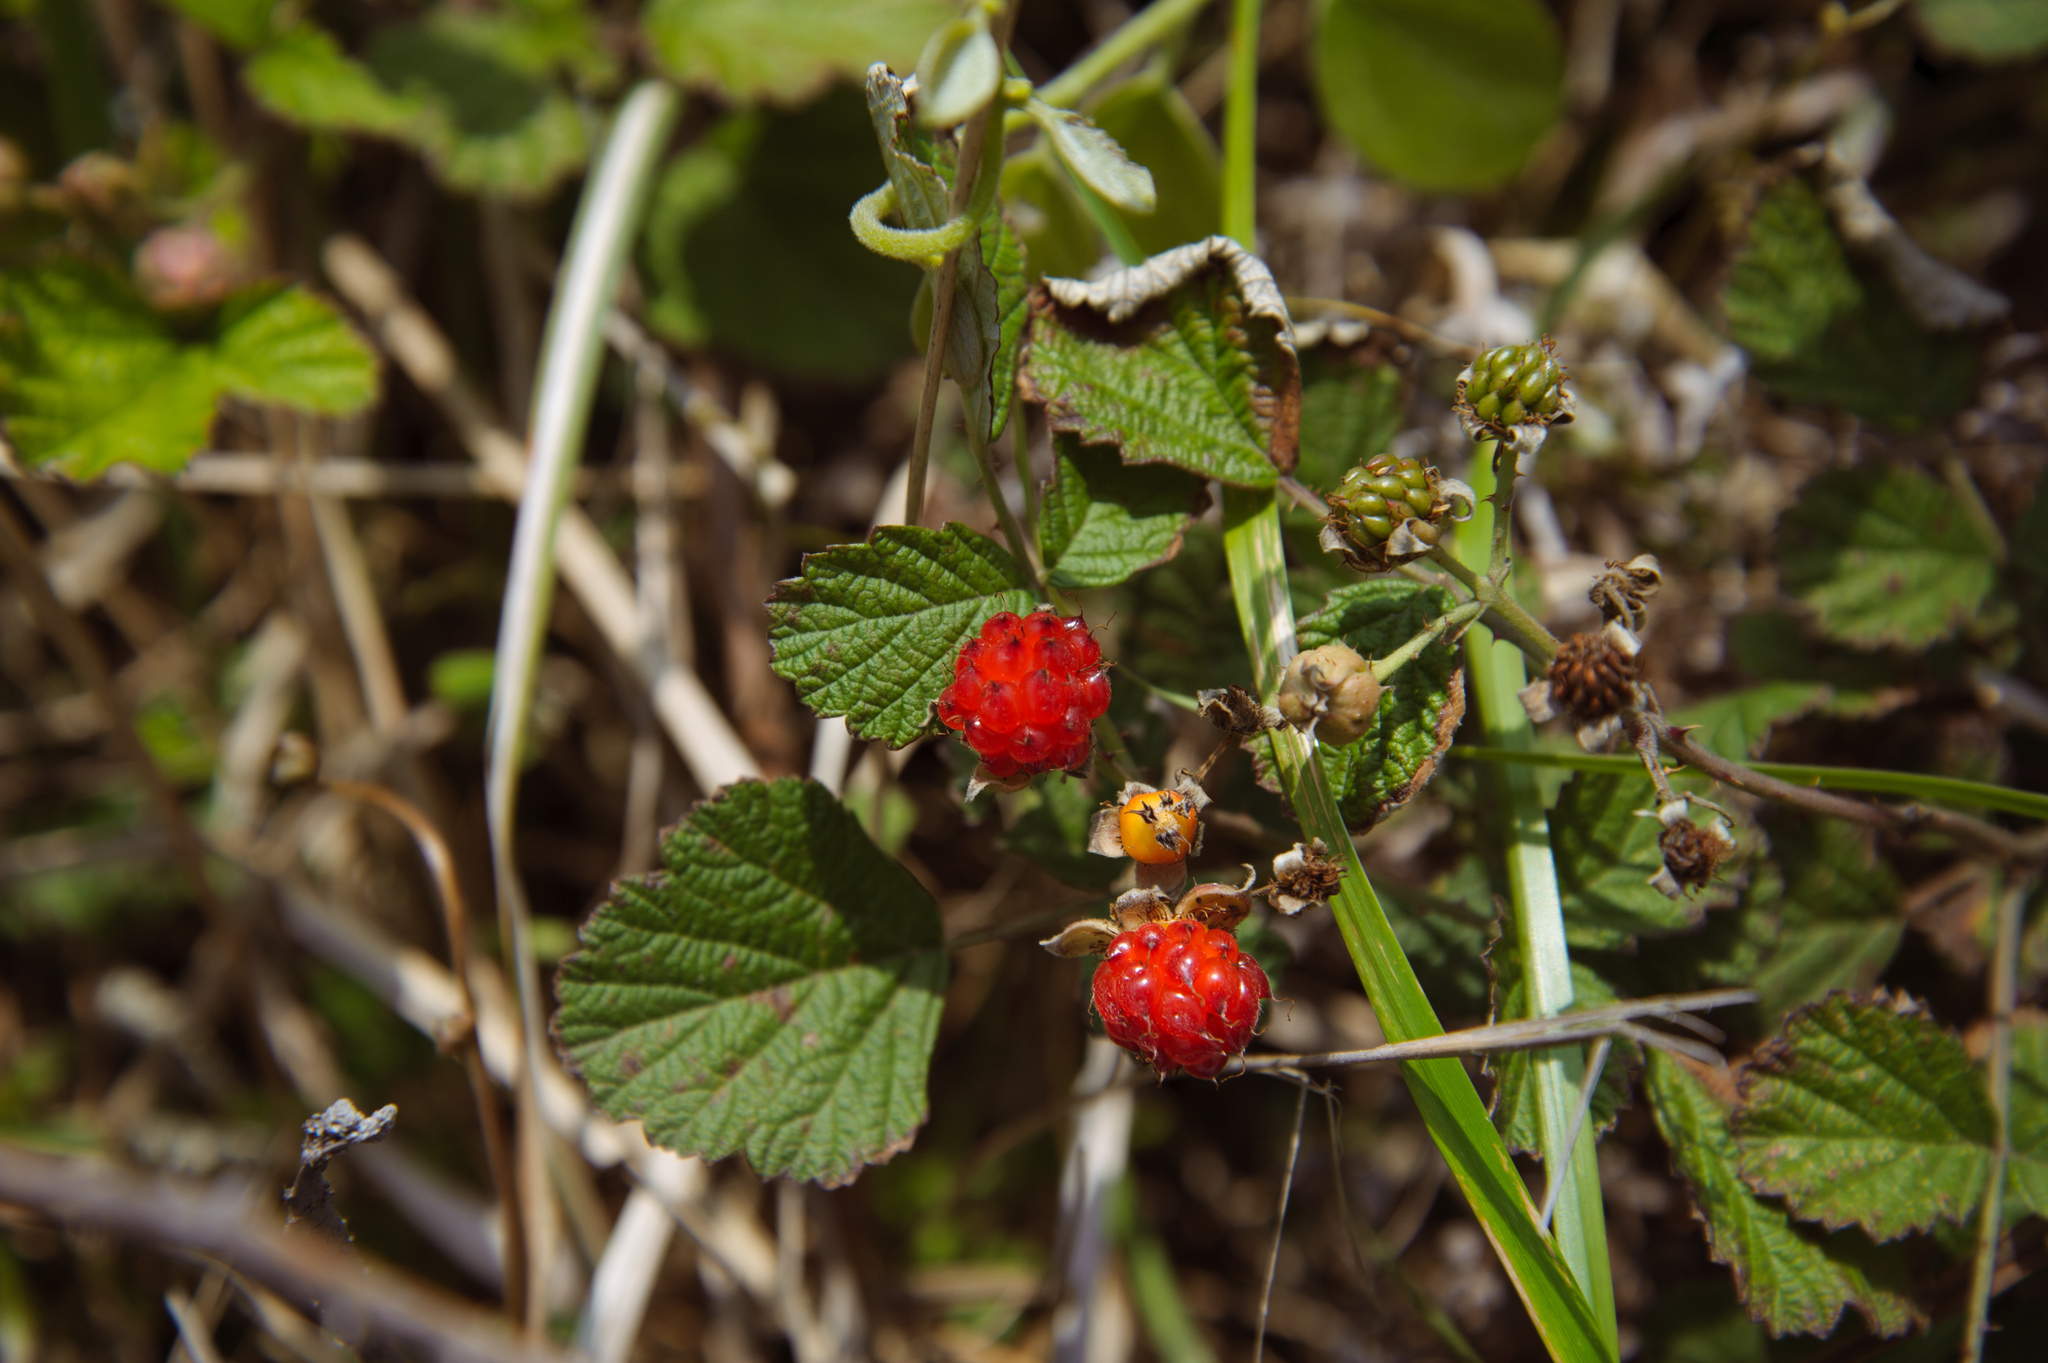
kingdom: Plantae
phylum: Tracheophyta
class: Magnoliopsida
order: Rosales
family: Rosaceae
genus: Rubus
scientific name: Rubus parvifolius
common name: Threeleaf blackberry
